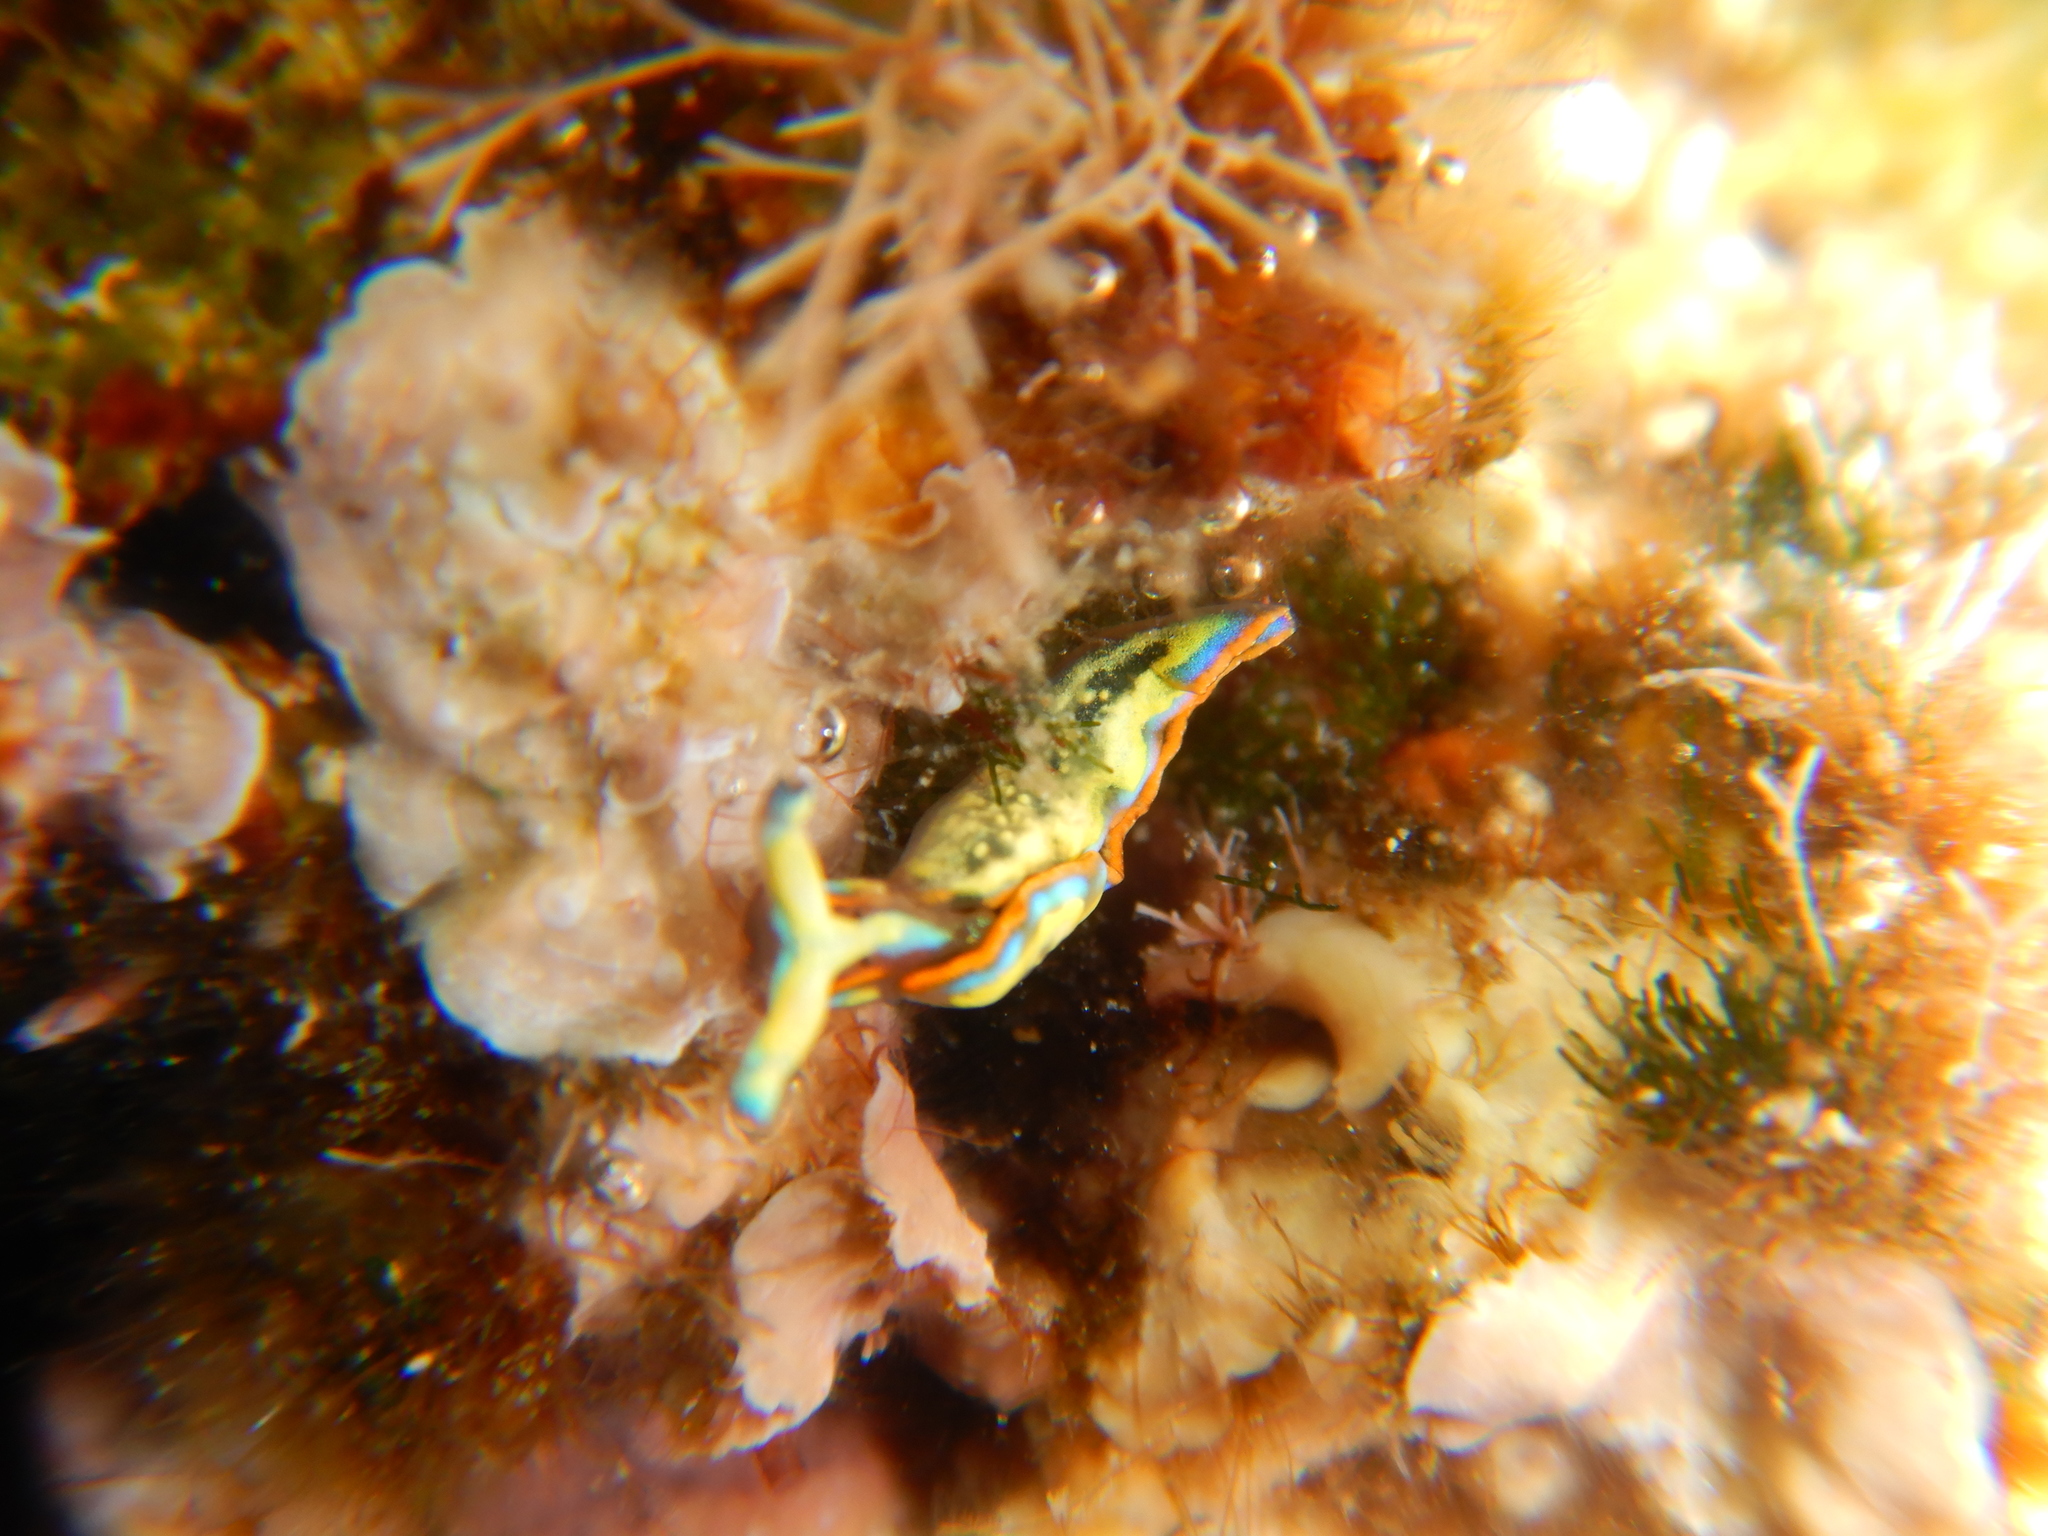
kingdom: Animalia
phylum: Mollusca
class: Gastropoda
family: Plakobranchidae
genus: Thuridilla
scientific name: Thuridilla hopei
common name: Splendid elysia
